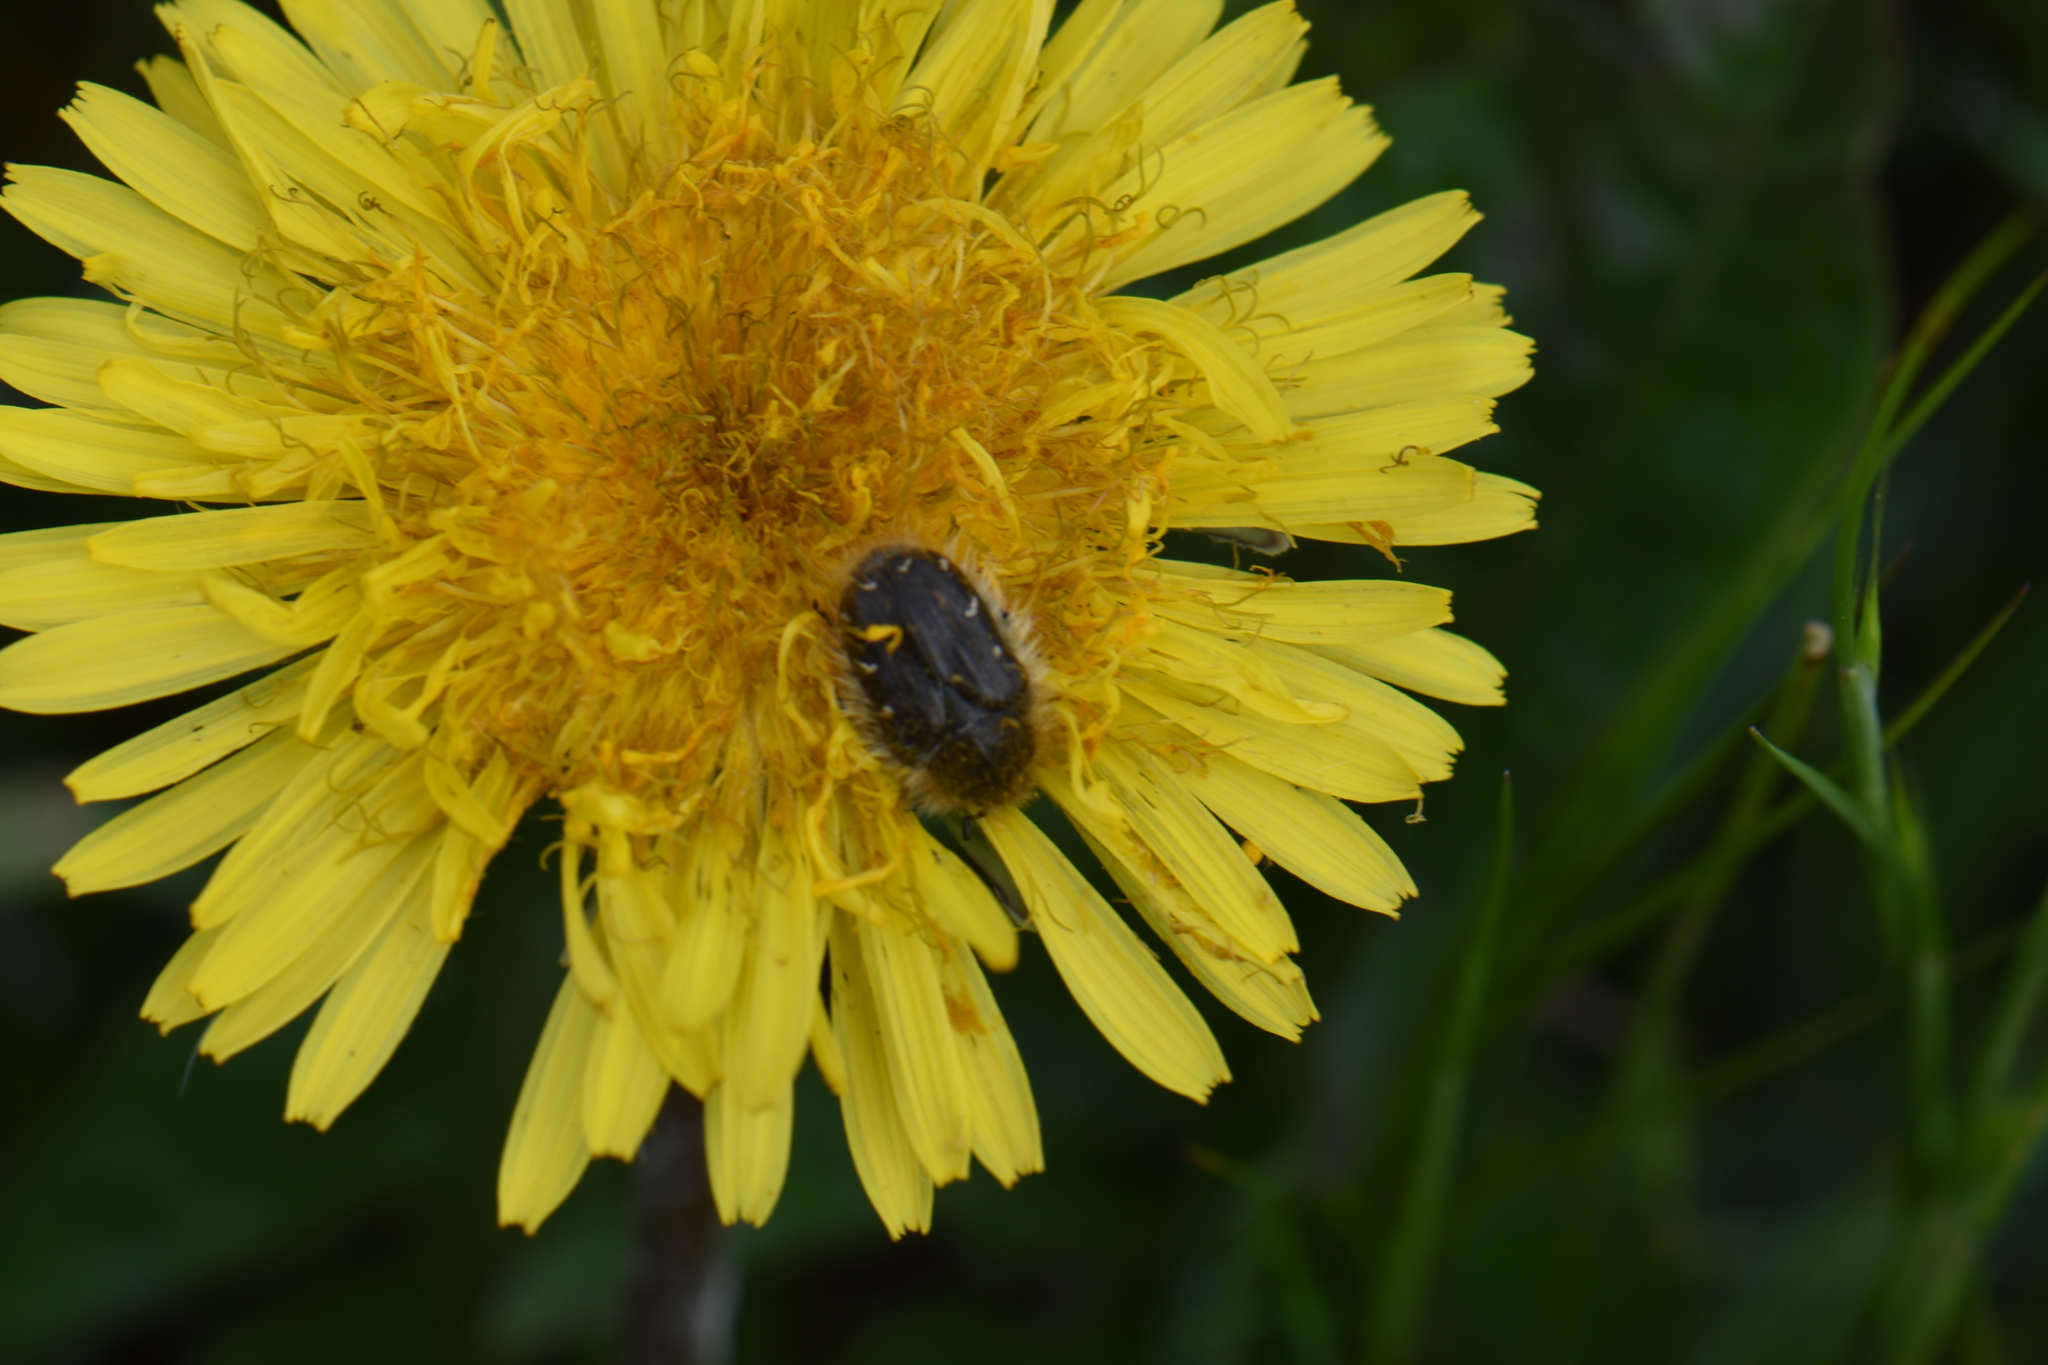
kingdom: Animalia
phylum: Arthropoda
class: Insecta
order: Coleoptera
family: Scarabaeidae
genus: Tropinota
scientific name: Tropinota hirta
